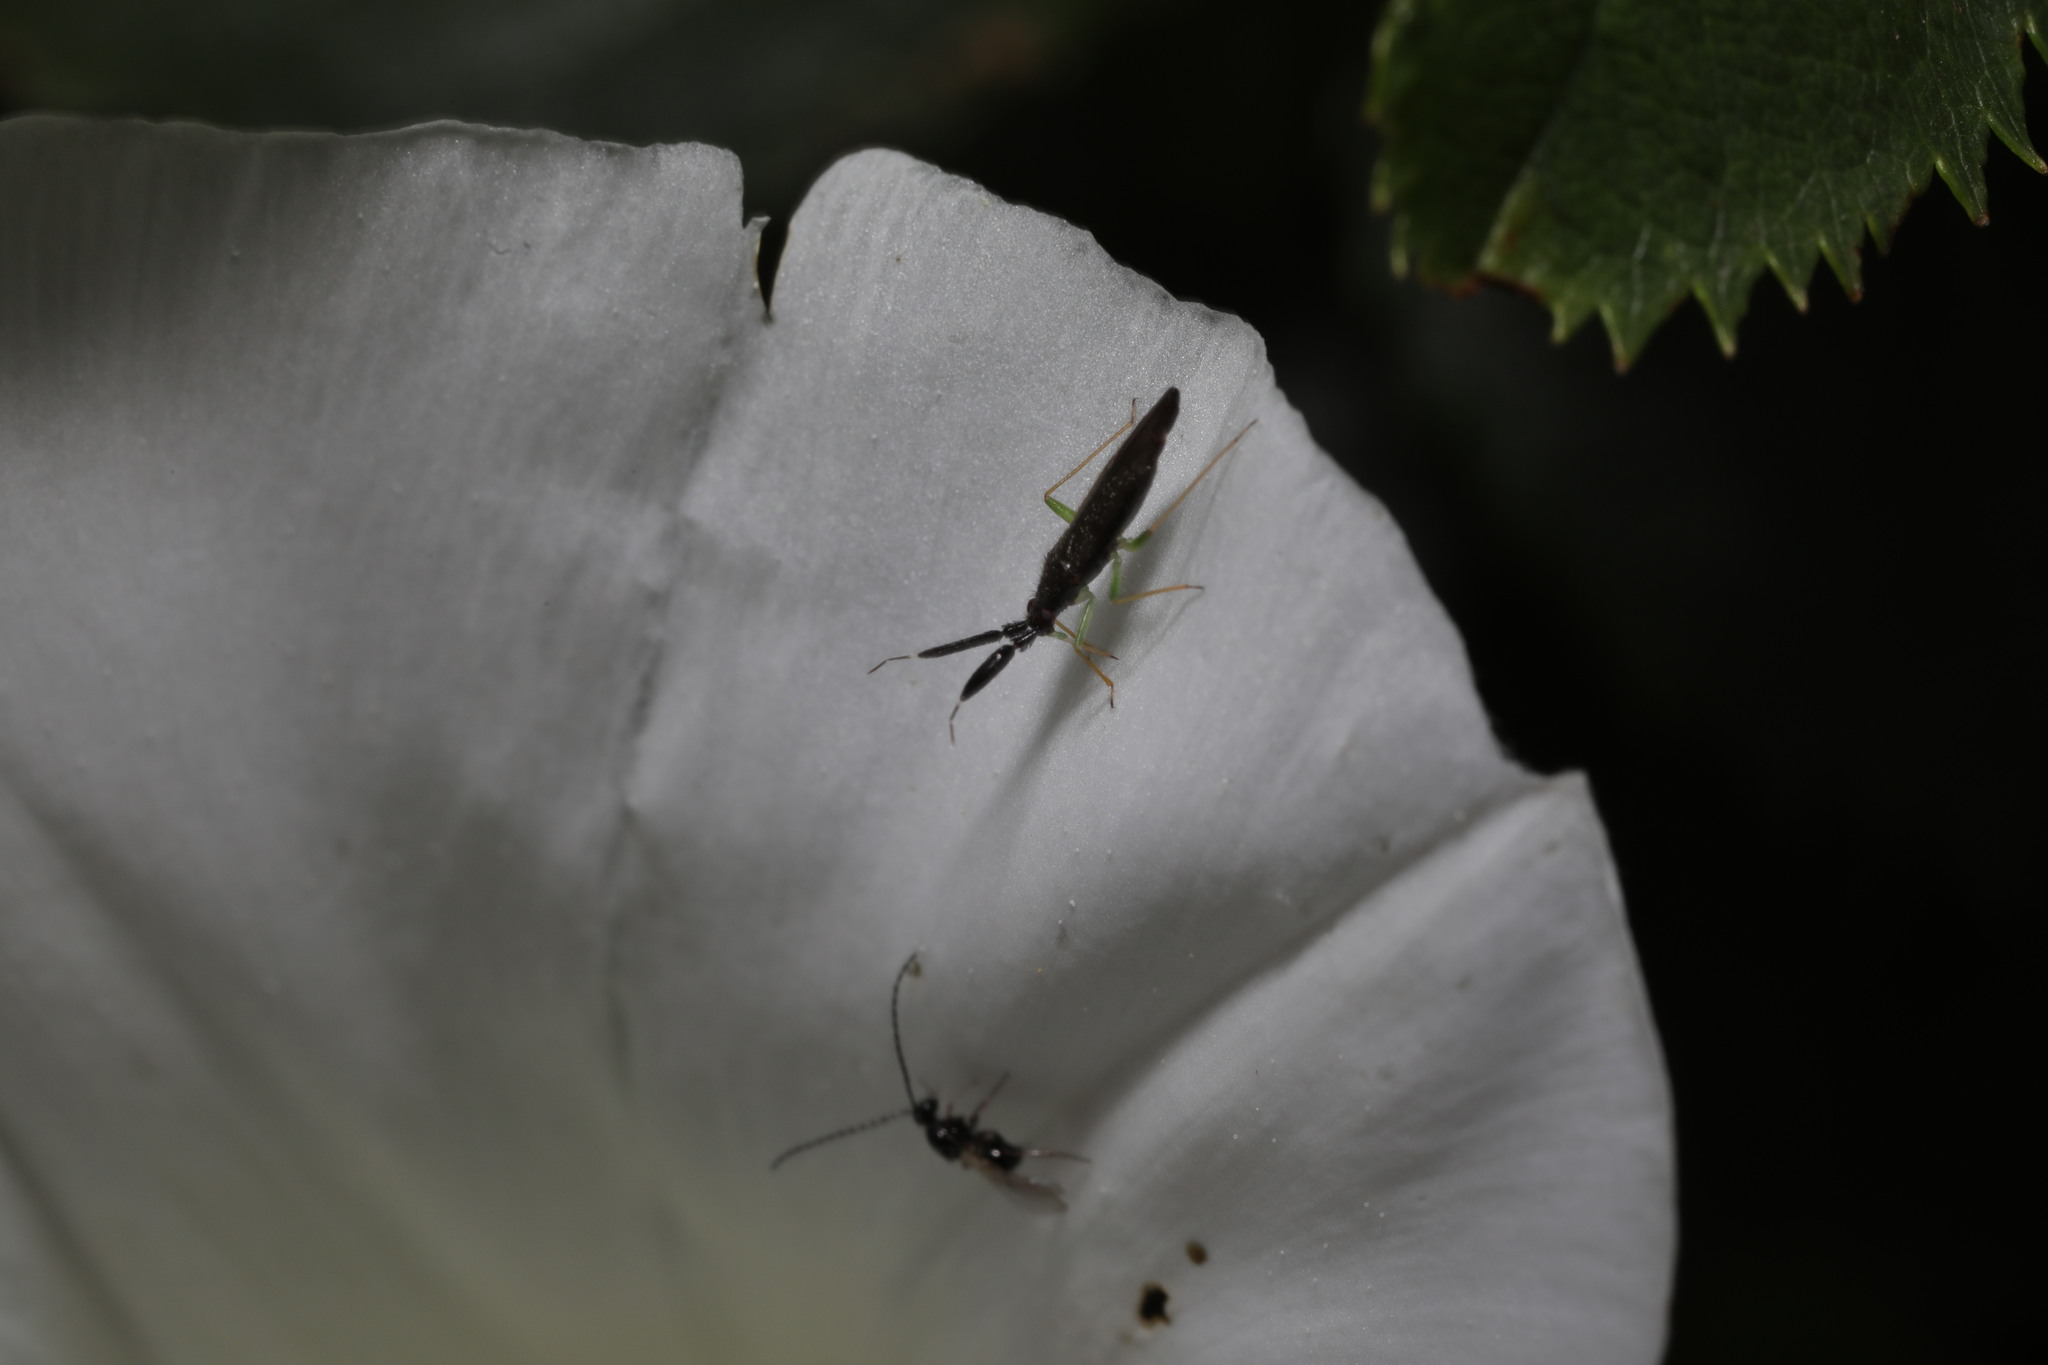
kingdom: Animalia
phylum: Arthropoda
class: Insecta
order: Hemiptera
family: Miridae
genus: Heterotoma
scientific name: Heterotoma planicornis
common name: Plant bug
